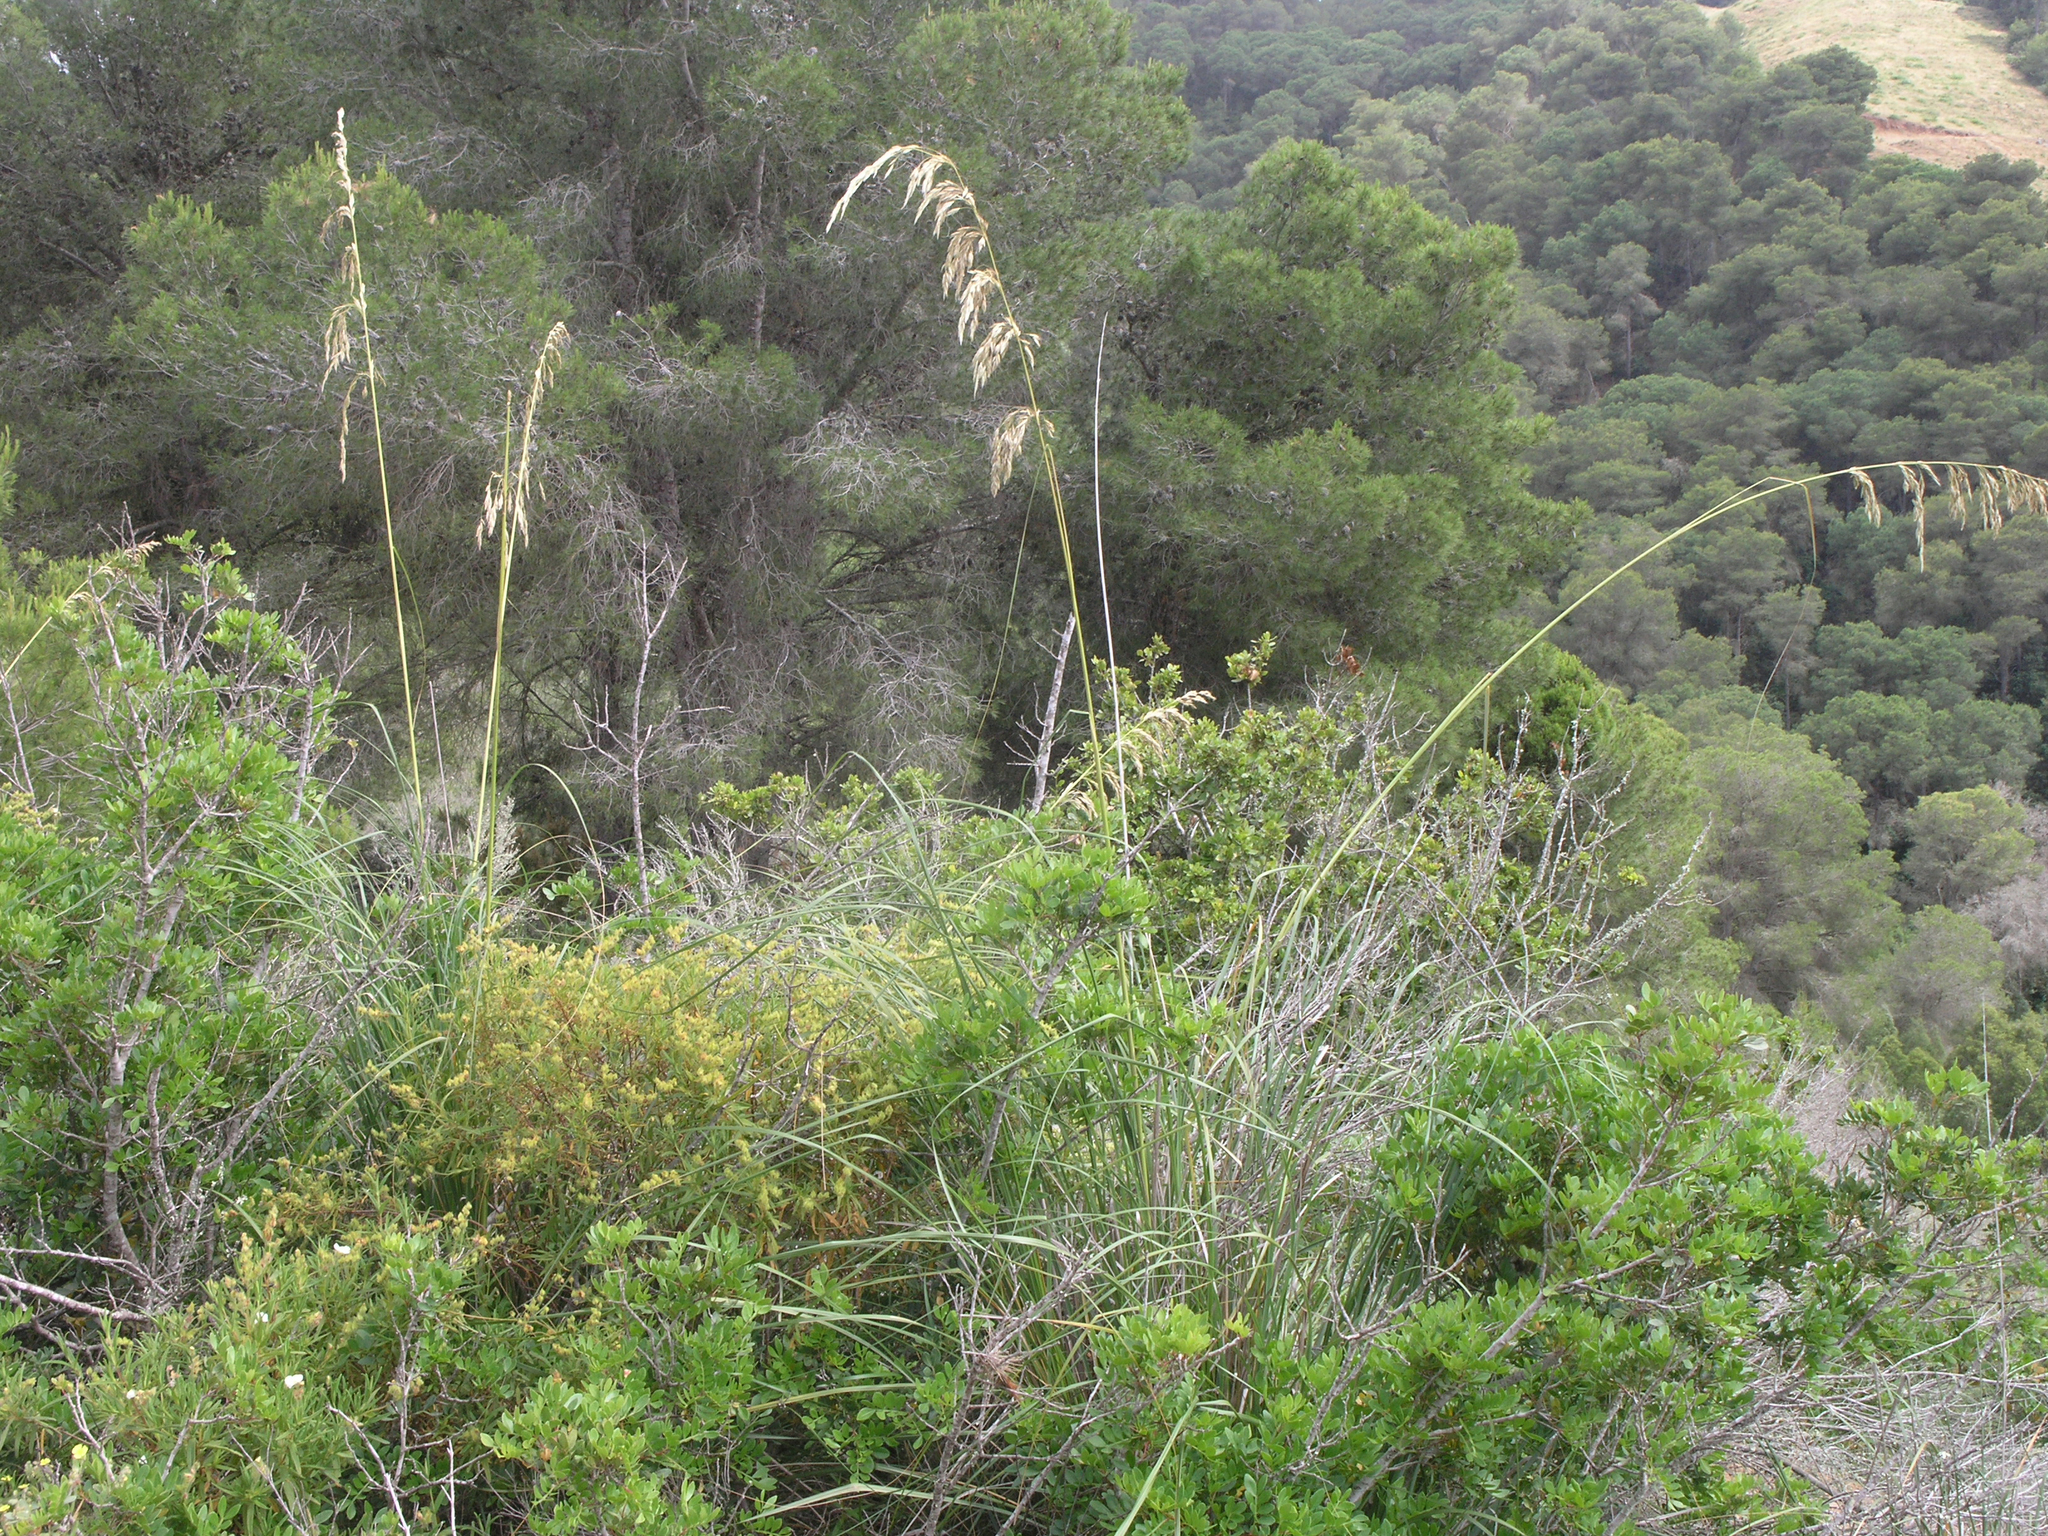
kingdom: Plantae
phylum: Tracheophyta
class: Pinopsida
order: Pinales
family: Pinaceae
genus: Pinus
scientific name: Pinus halepensis
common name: Aleppo pine
